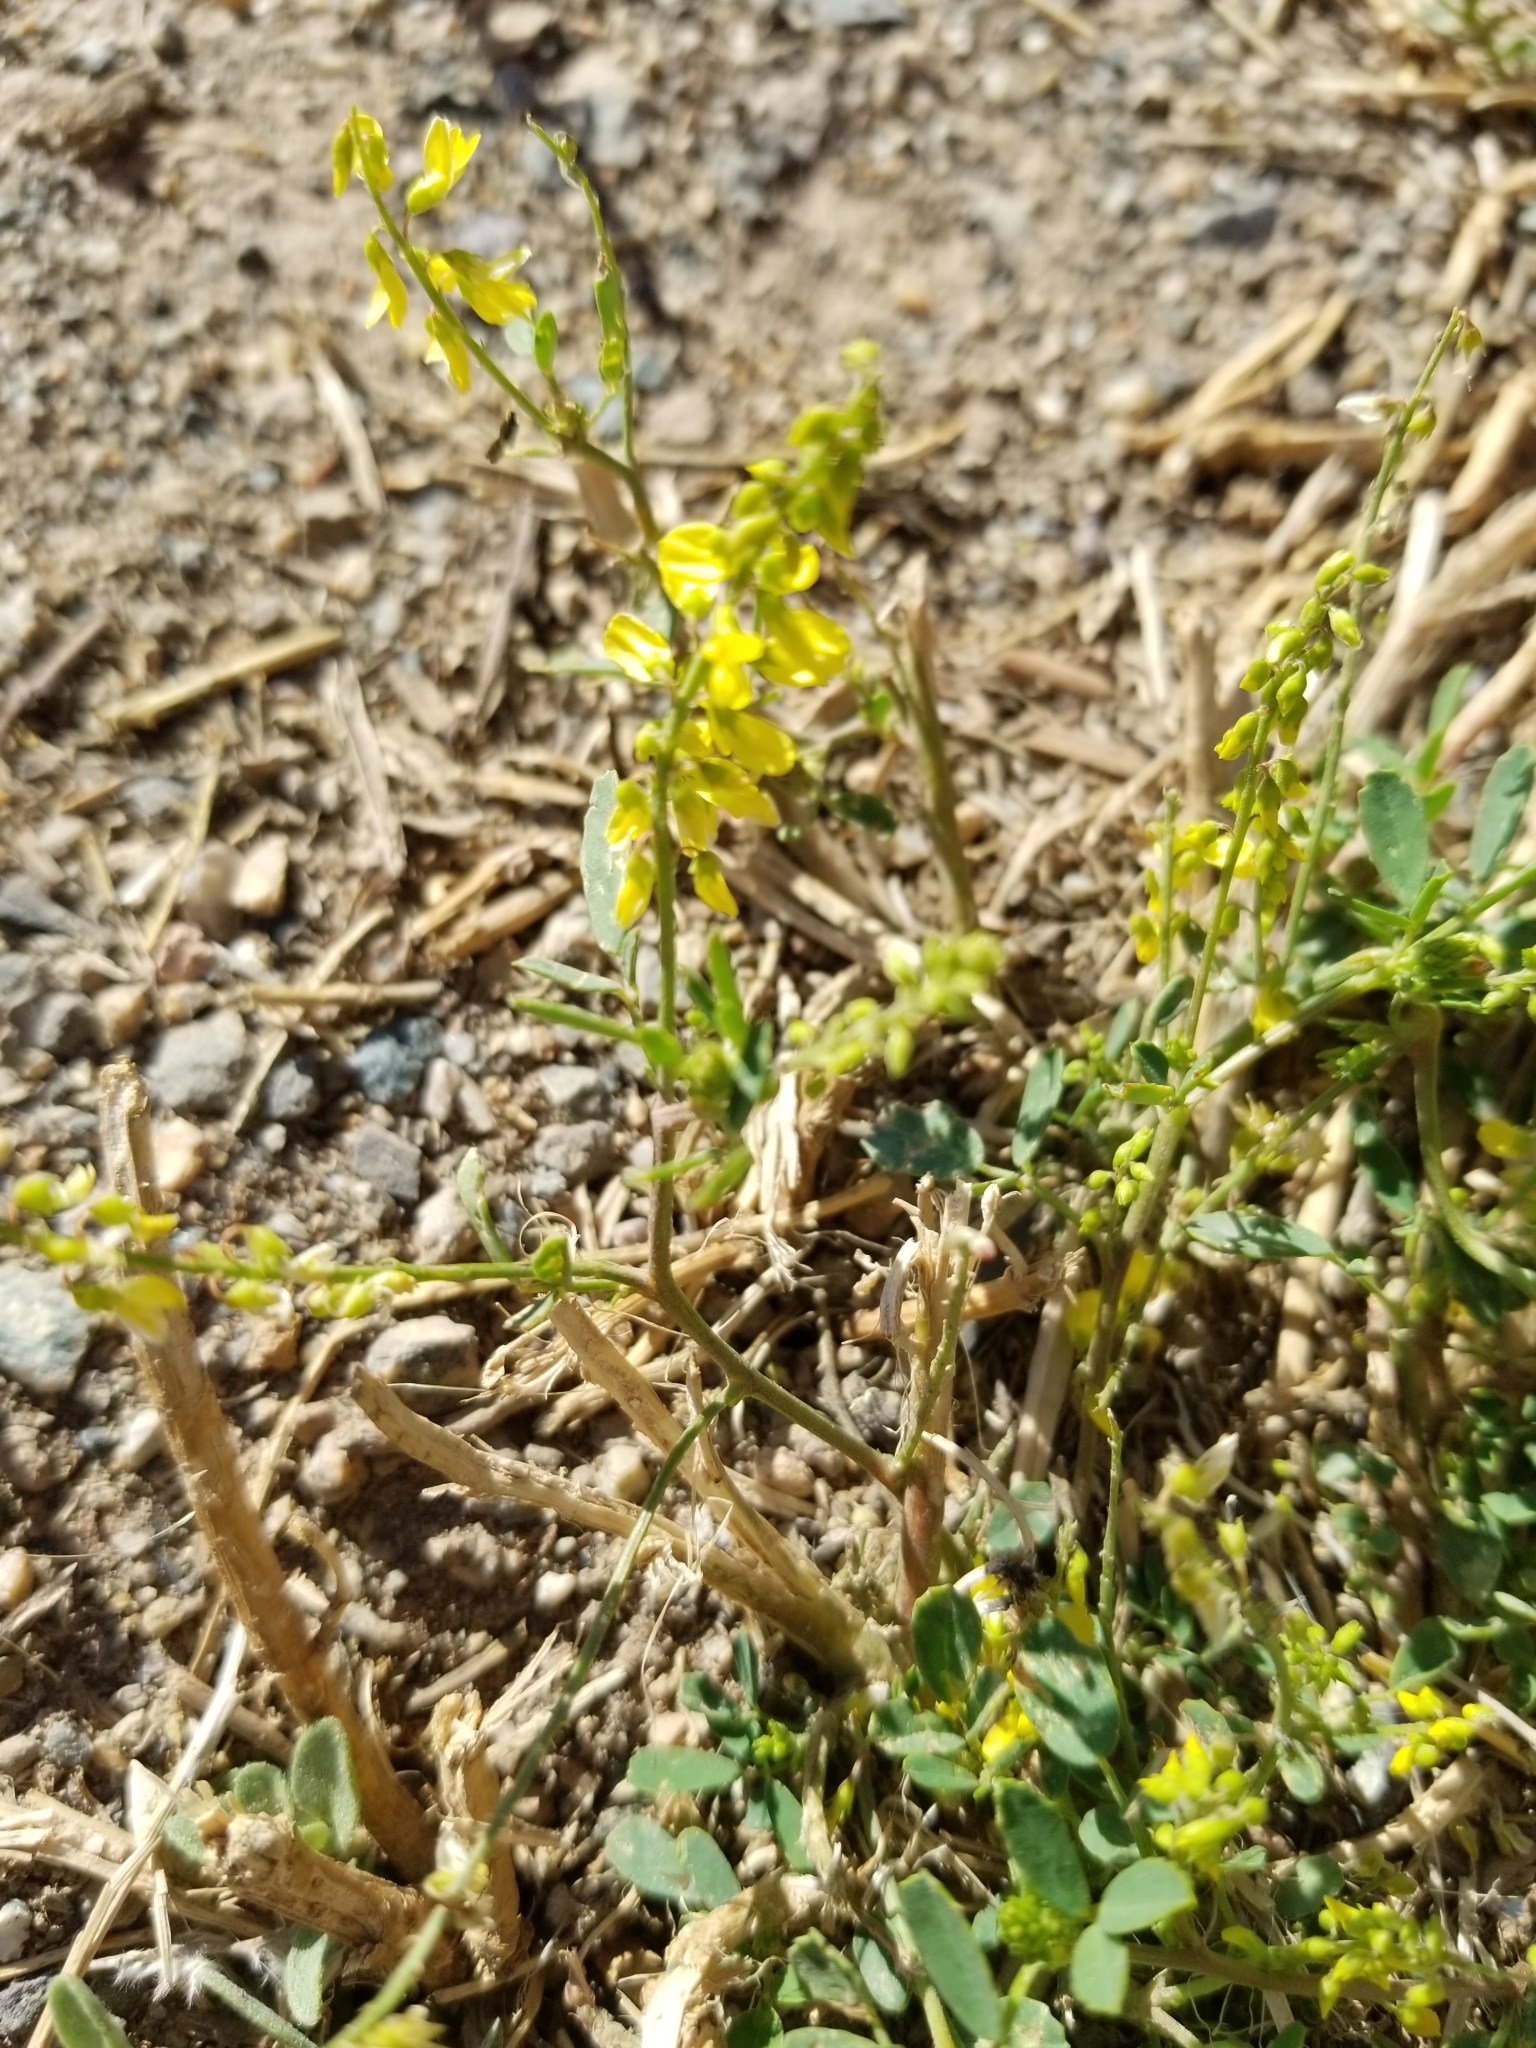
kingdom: Plantae
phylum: Tracheophyta
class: Magnoliopsida
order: Fabales
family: Fabaceae
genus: Melilotus
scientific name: Melilotus officinalis
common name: Sweetclover
